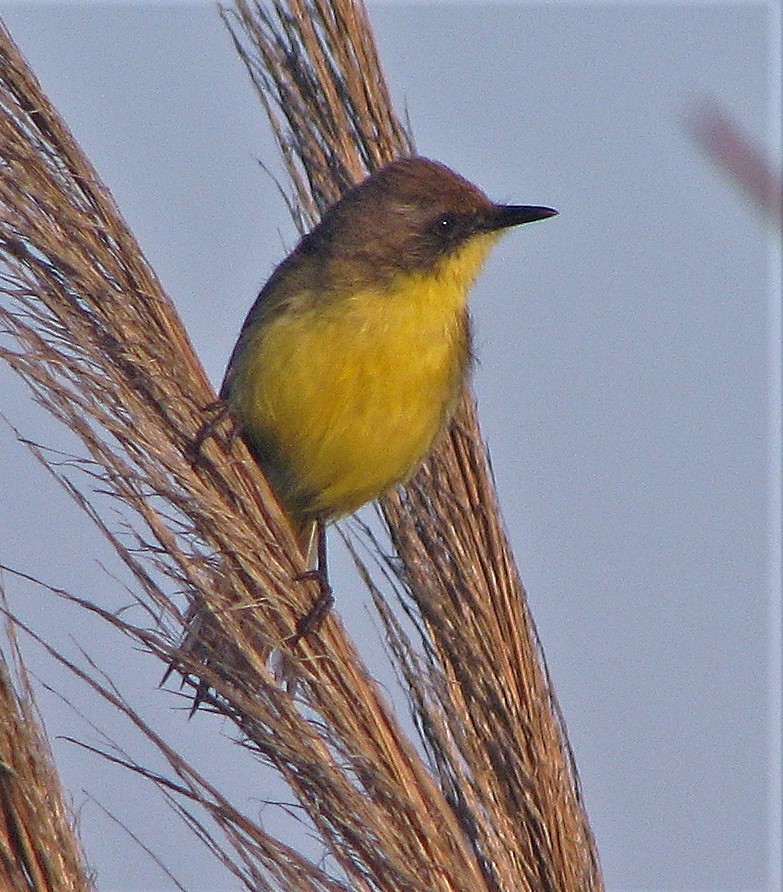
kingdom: Animalia
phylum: Chordata
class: Aves
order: Passeriformes
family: Tyrannidae
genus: Pseudocolopteryx
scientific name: Pseudocolopteryx flaviventris
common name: Warbling doradito
